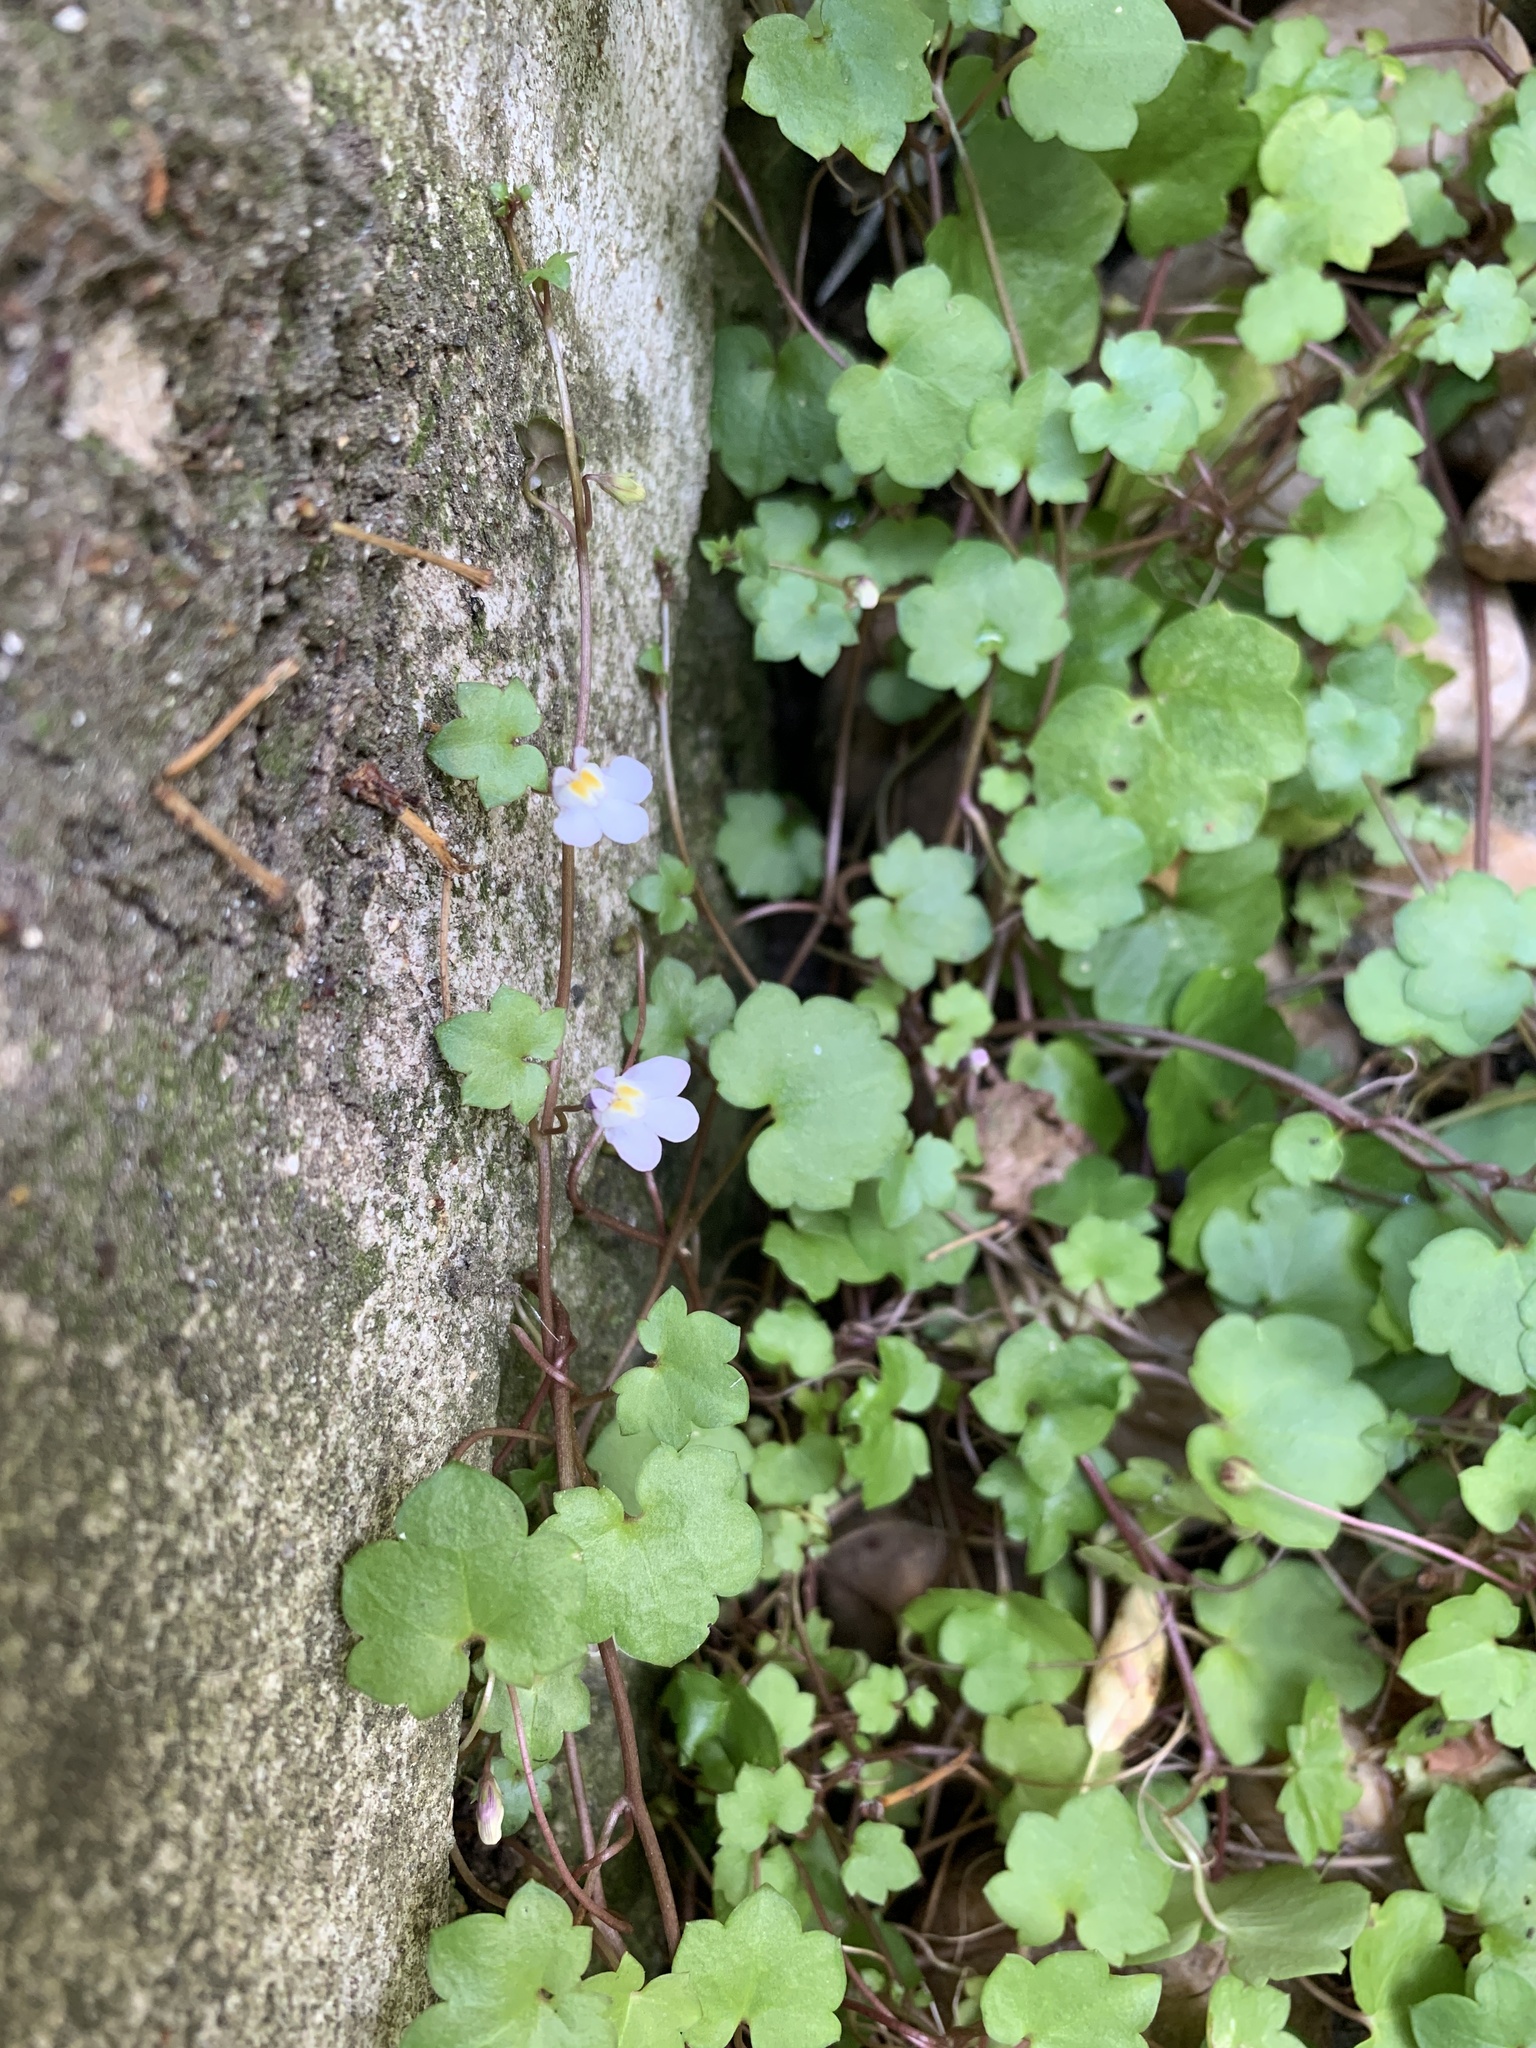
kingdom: Plantae
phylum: Tracheophyta
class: Magnoliopsida
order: Lamiales
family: Plantaginaceae
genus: Cymbalaria
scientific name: Cymbalaria muralis
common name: Ivy-leaved toadflax
